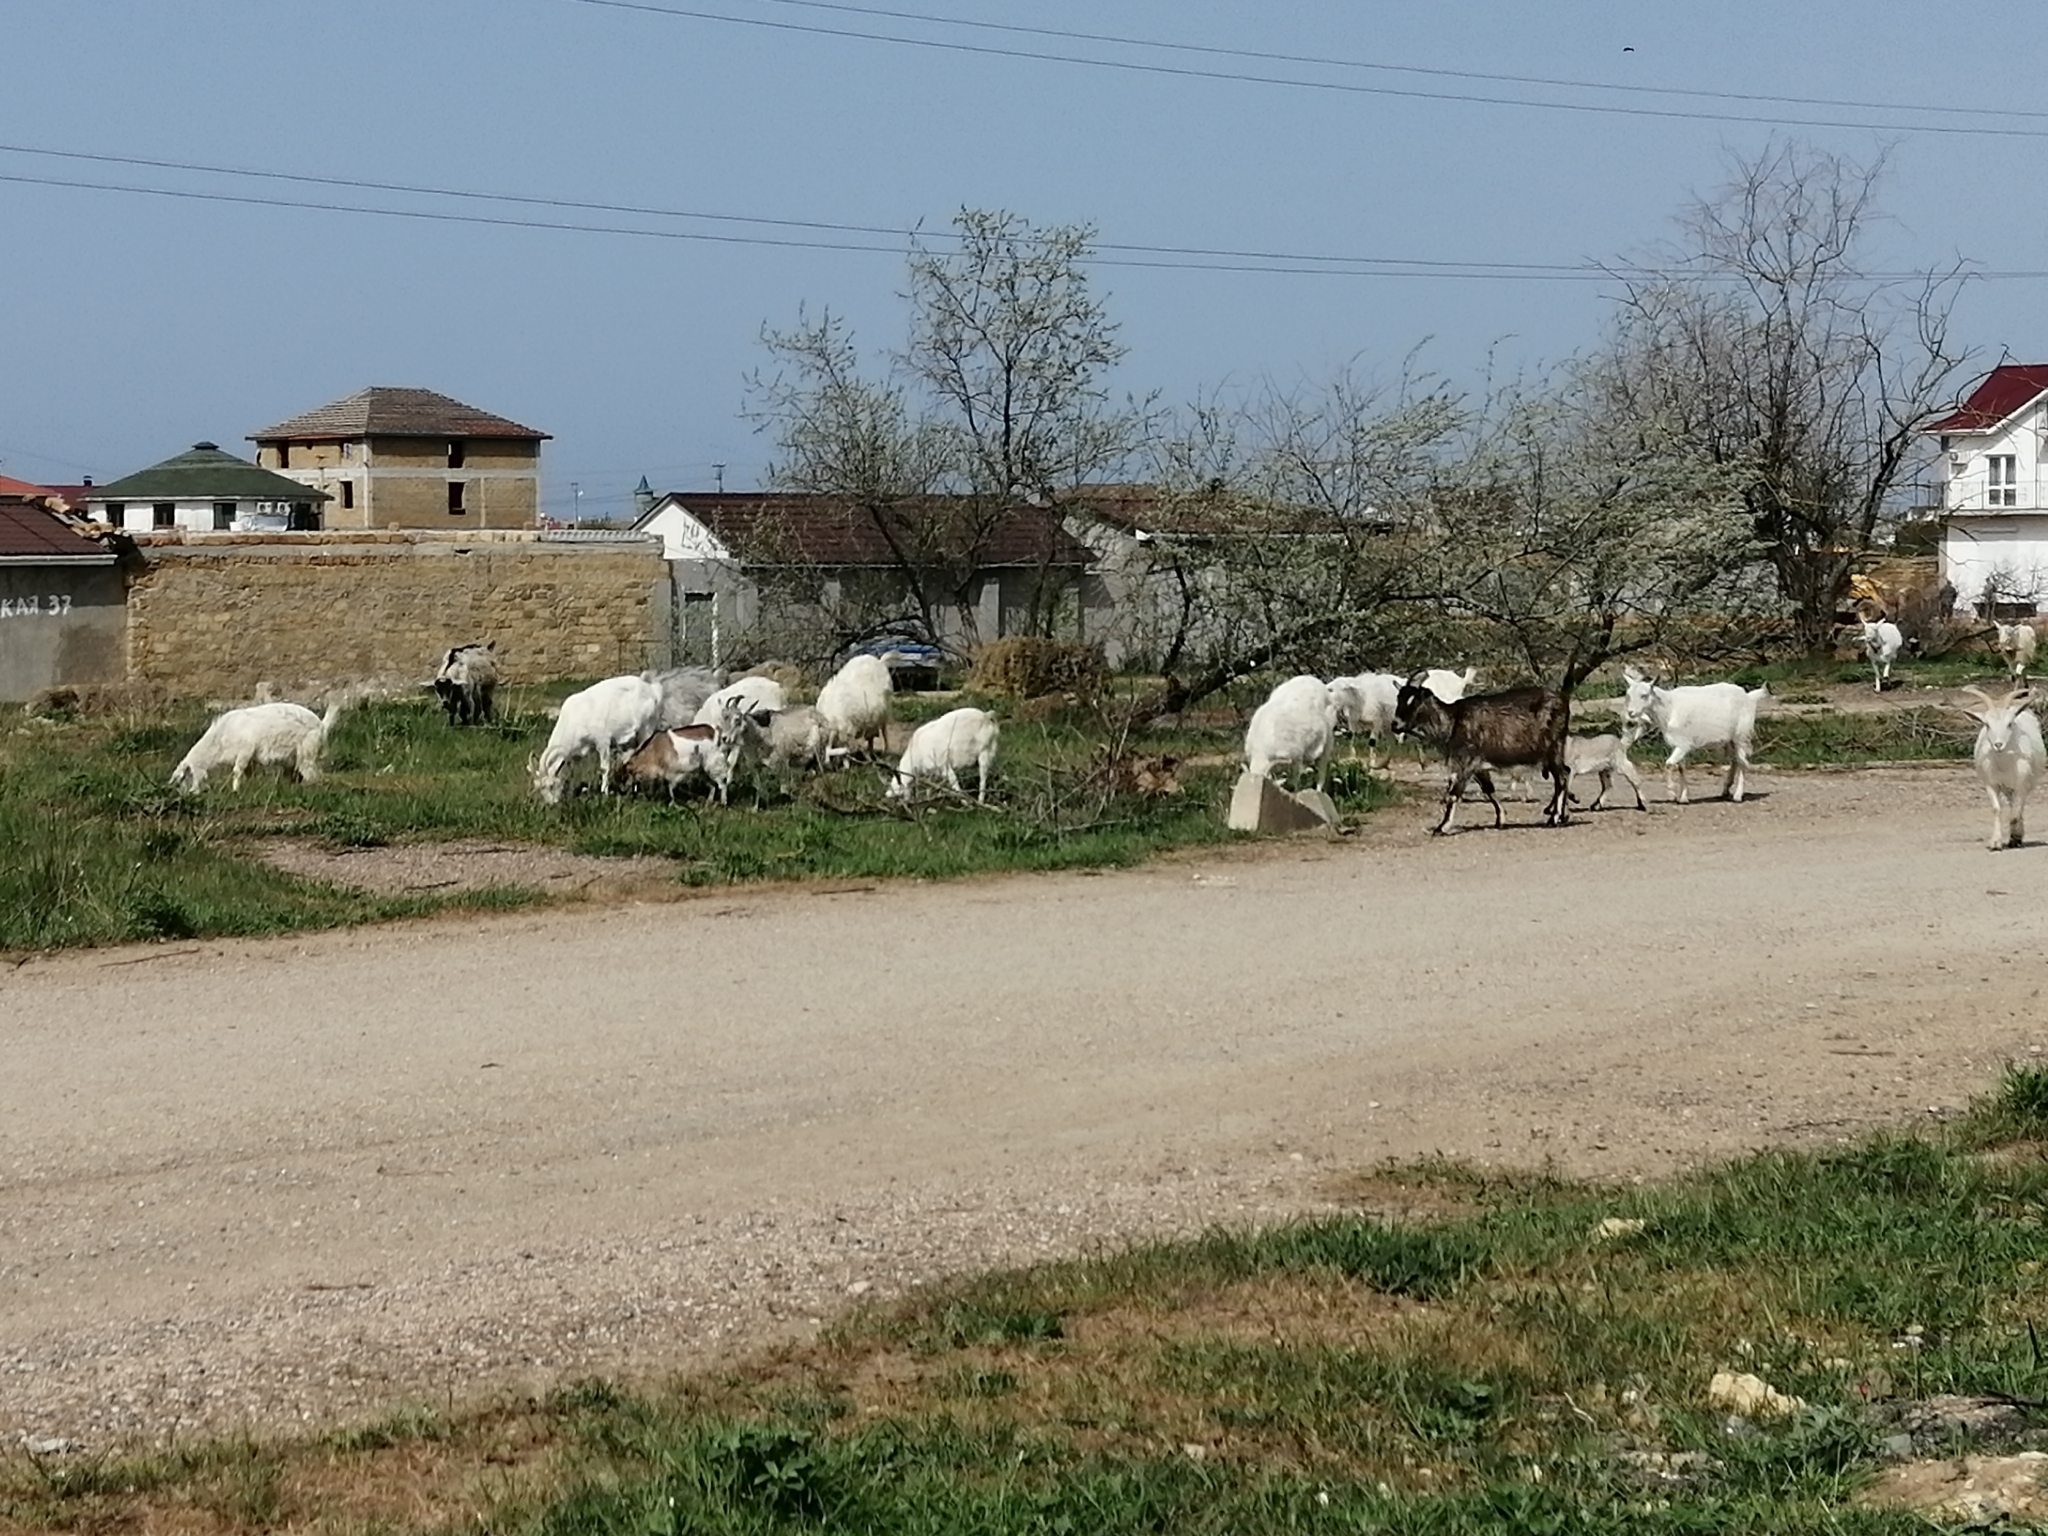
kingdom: Animalia
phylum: Chordata
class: Mammalia
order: Artiodactyla
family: Bovidae
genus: Capra
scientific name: Capra hircus
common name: Domestic goat
